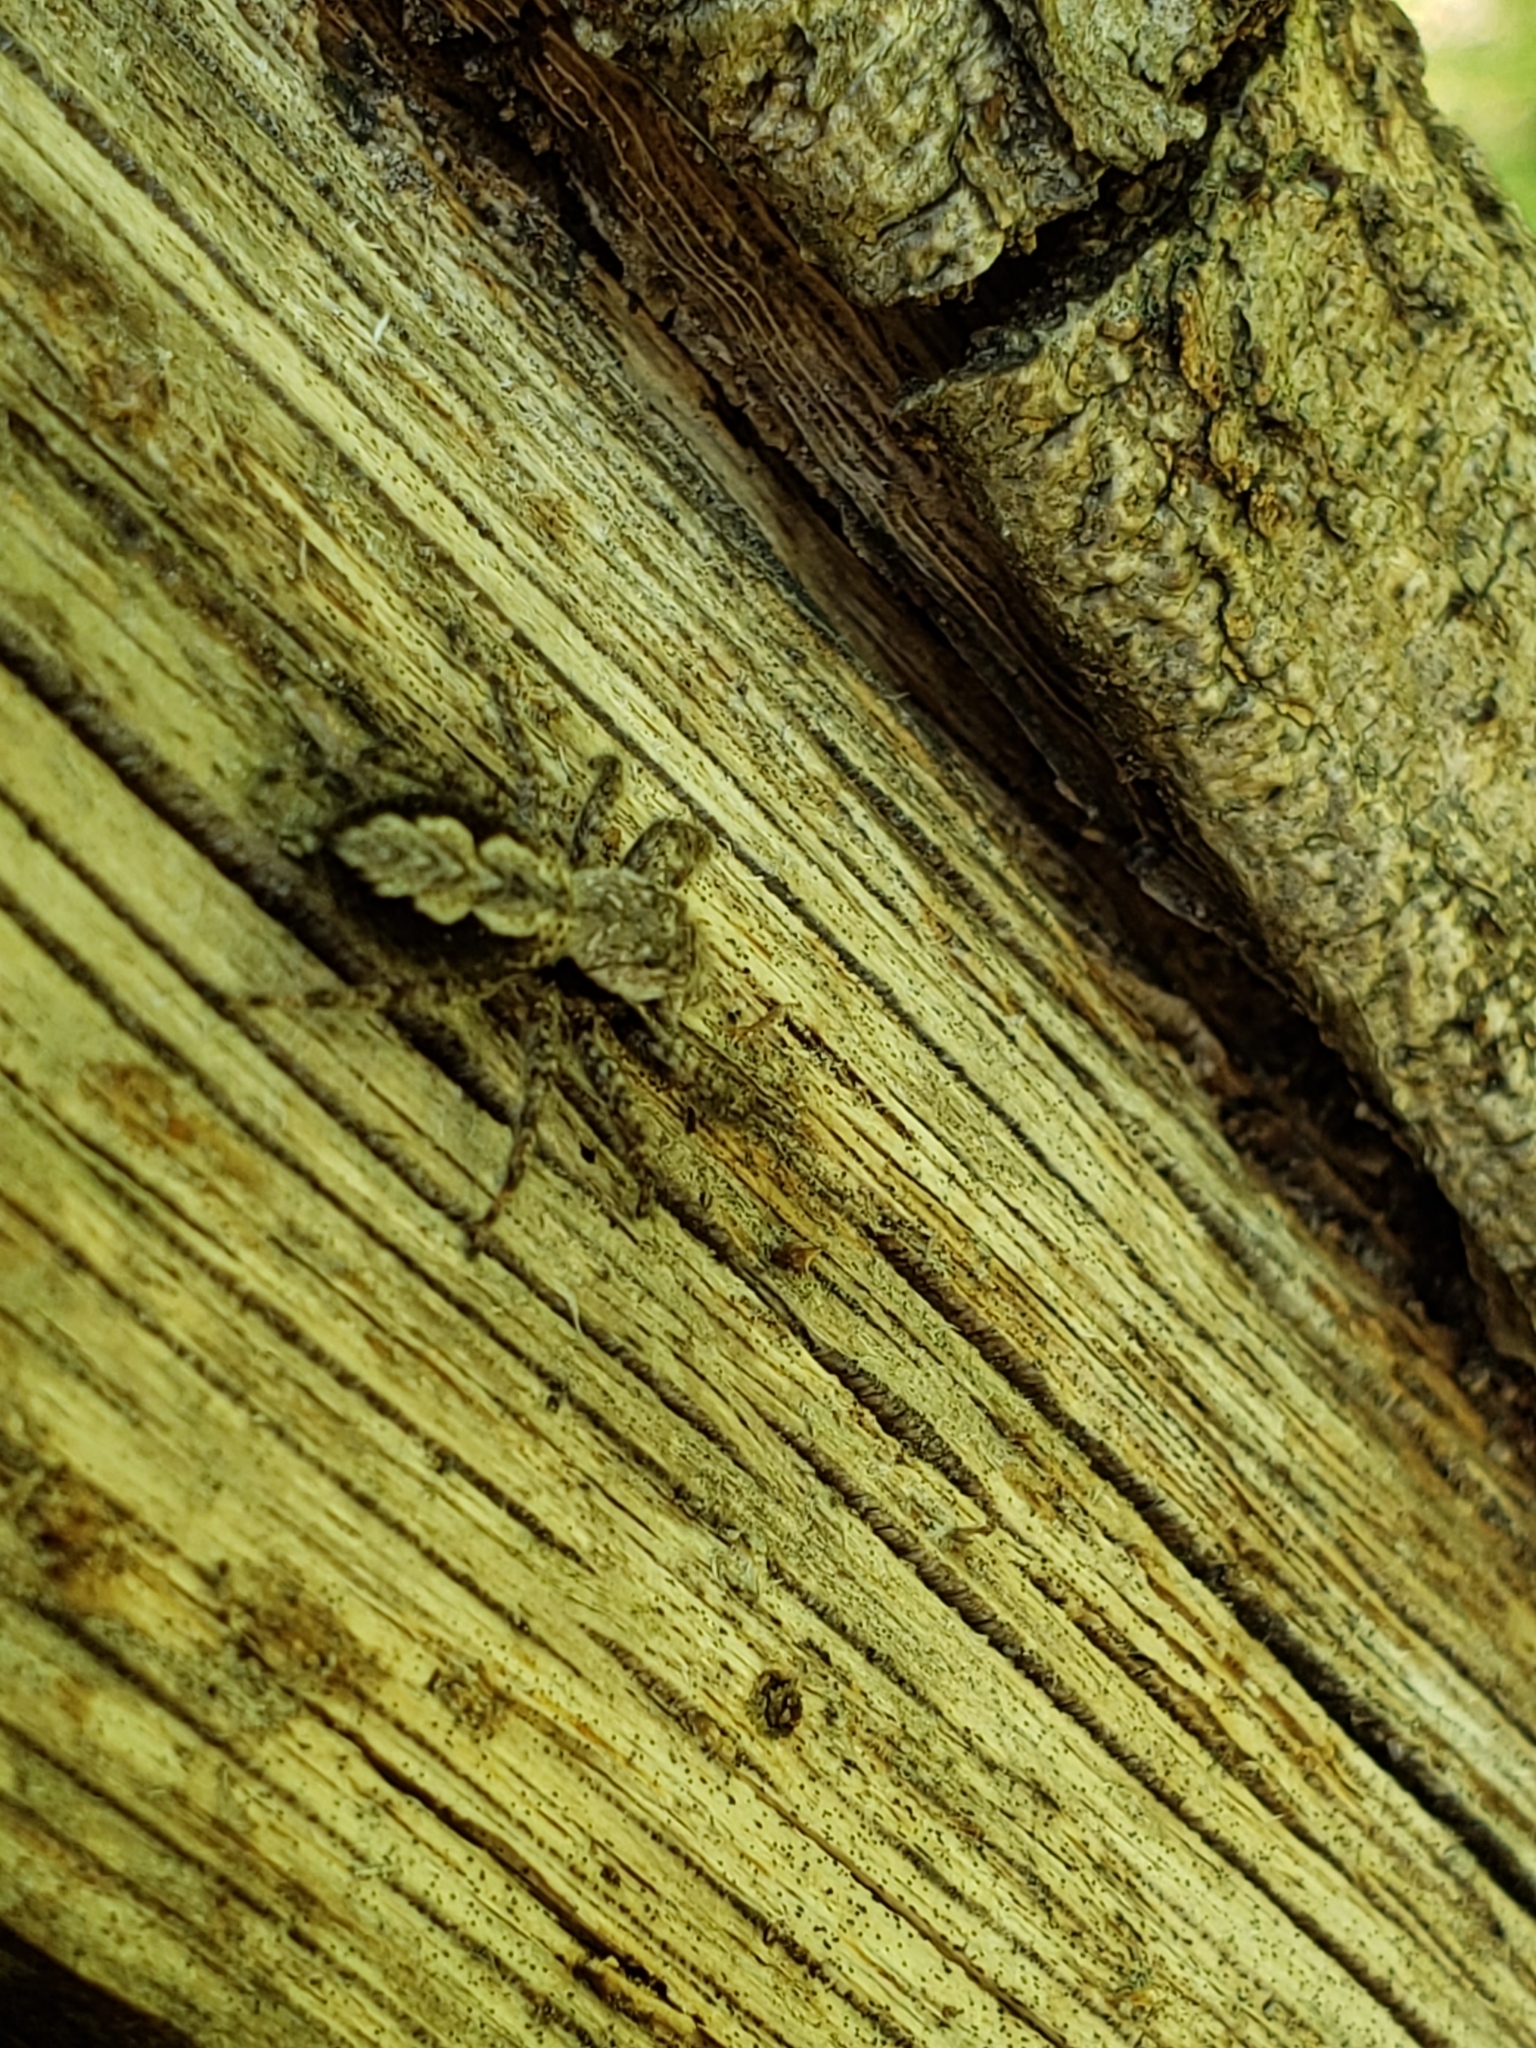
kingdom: Animalia
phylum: Arthropoda
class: Arachnida
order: Araneae
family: Salticidae
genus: Platycryptus
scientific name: Platycryptus undatus
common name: Tan jumping spider
